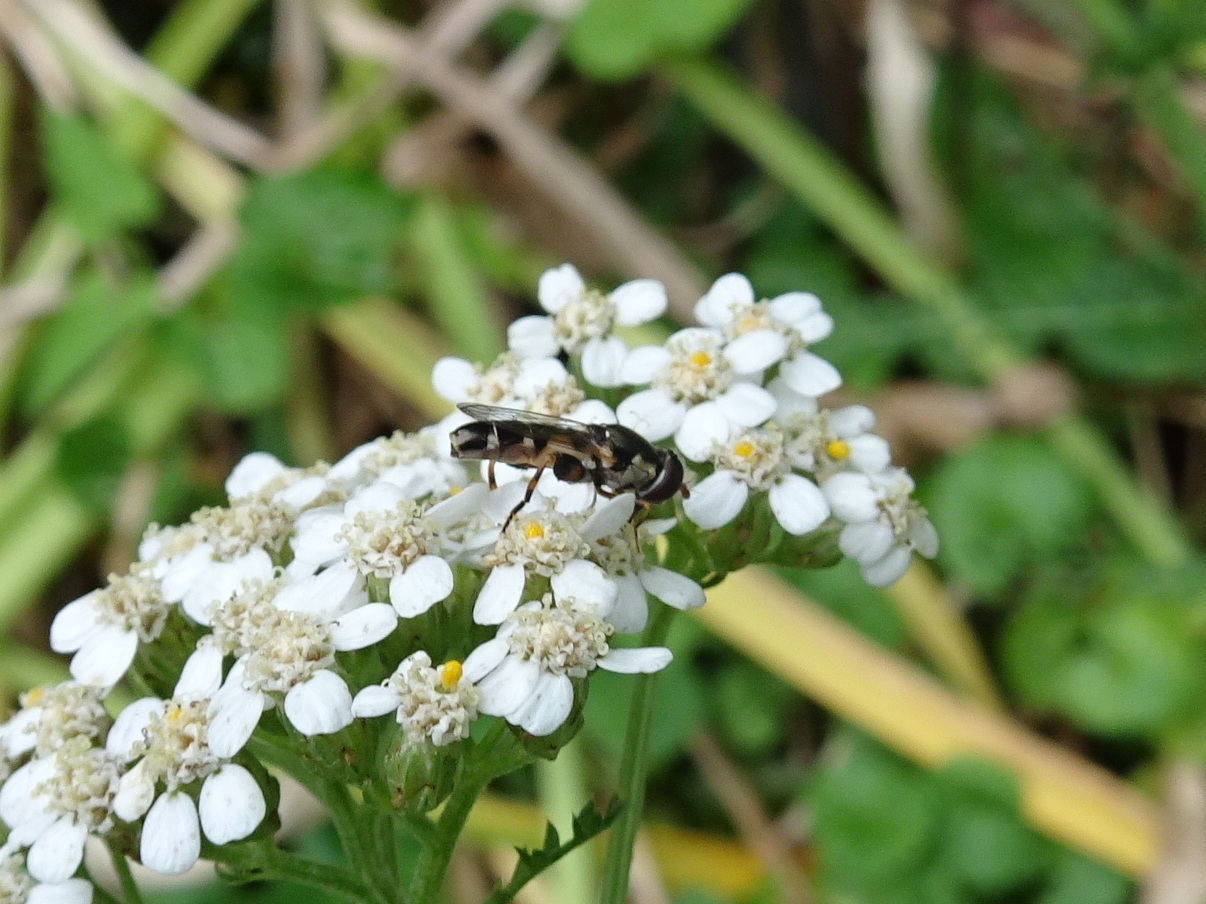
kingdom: Animalia
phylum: Arthropoda
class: Insecta
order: Diptera
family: Syrphidae
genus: Syritta
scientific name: Syritta pipiens
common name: Hover fly
